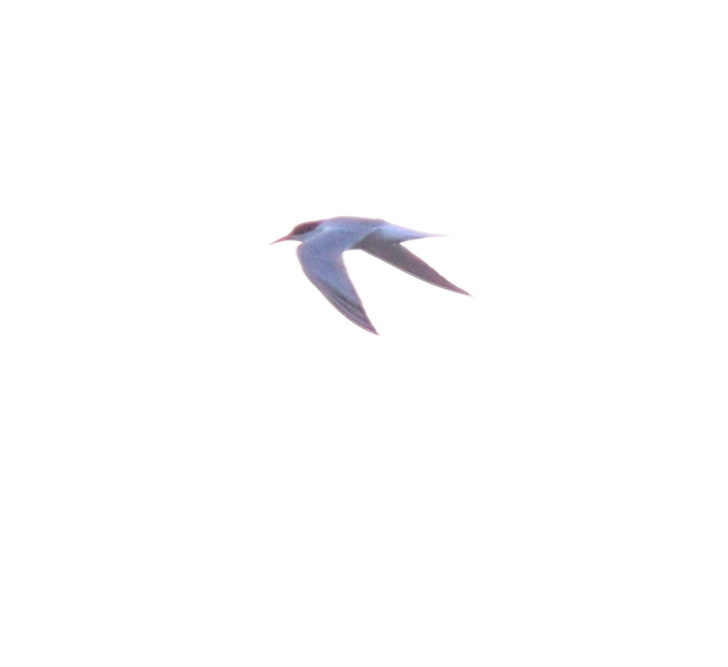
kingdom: Animalia
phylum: Chordata
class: Aves
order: Charadriiformes
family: Laridae
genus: Sterna
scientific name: Sterna hirundo
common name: Common tern
